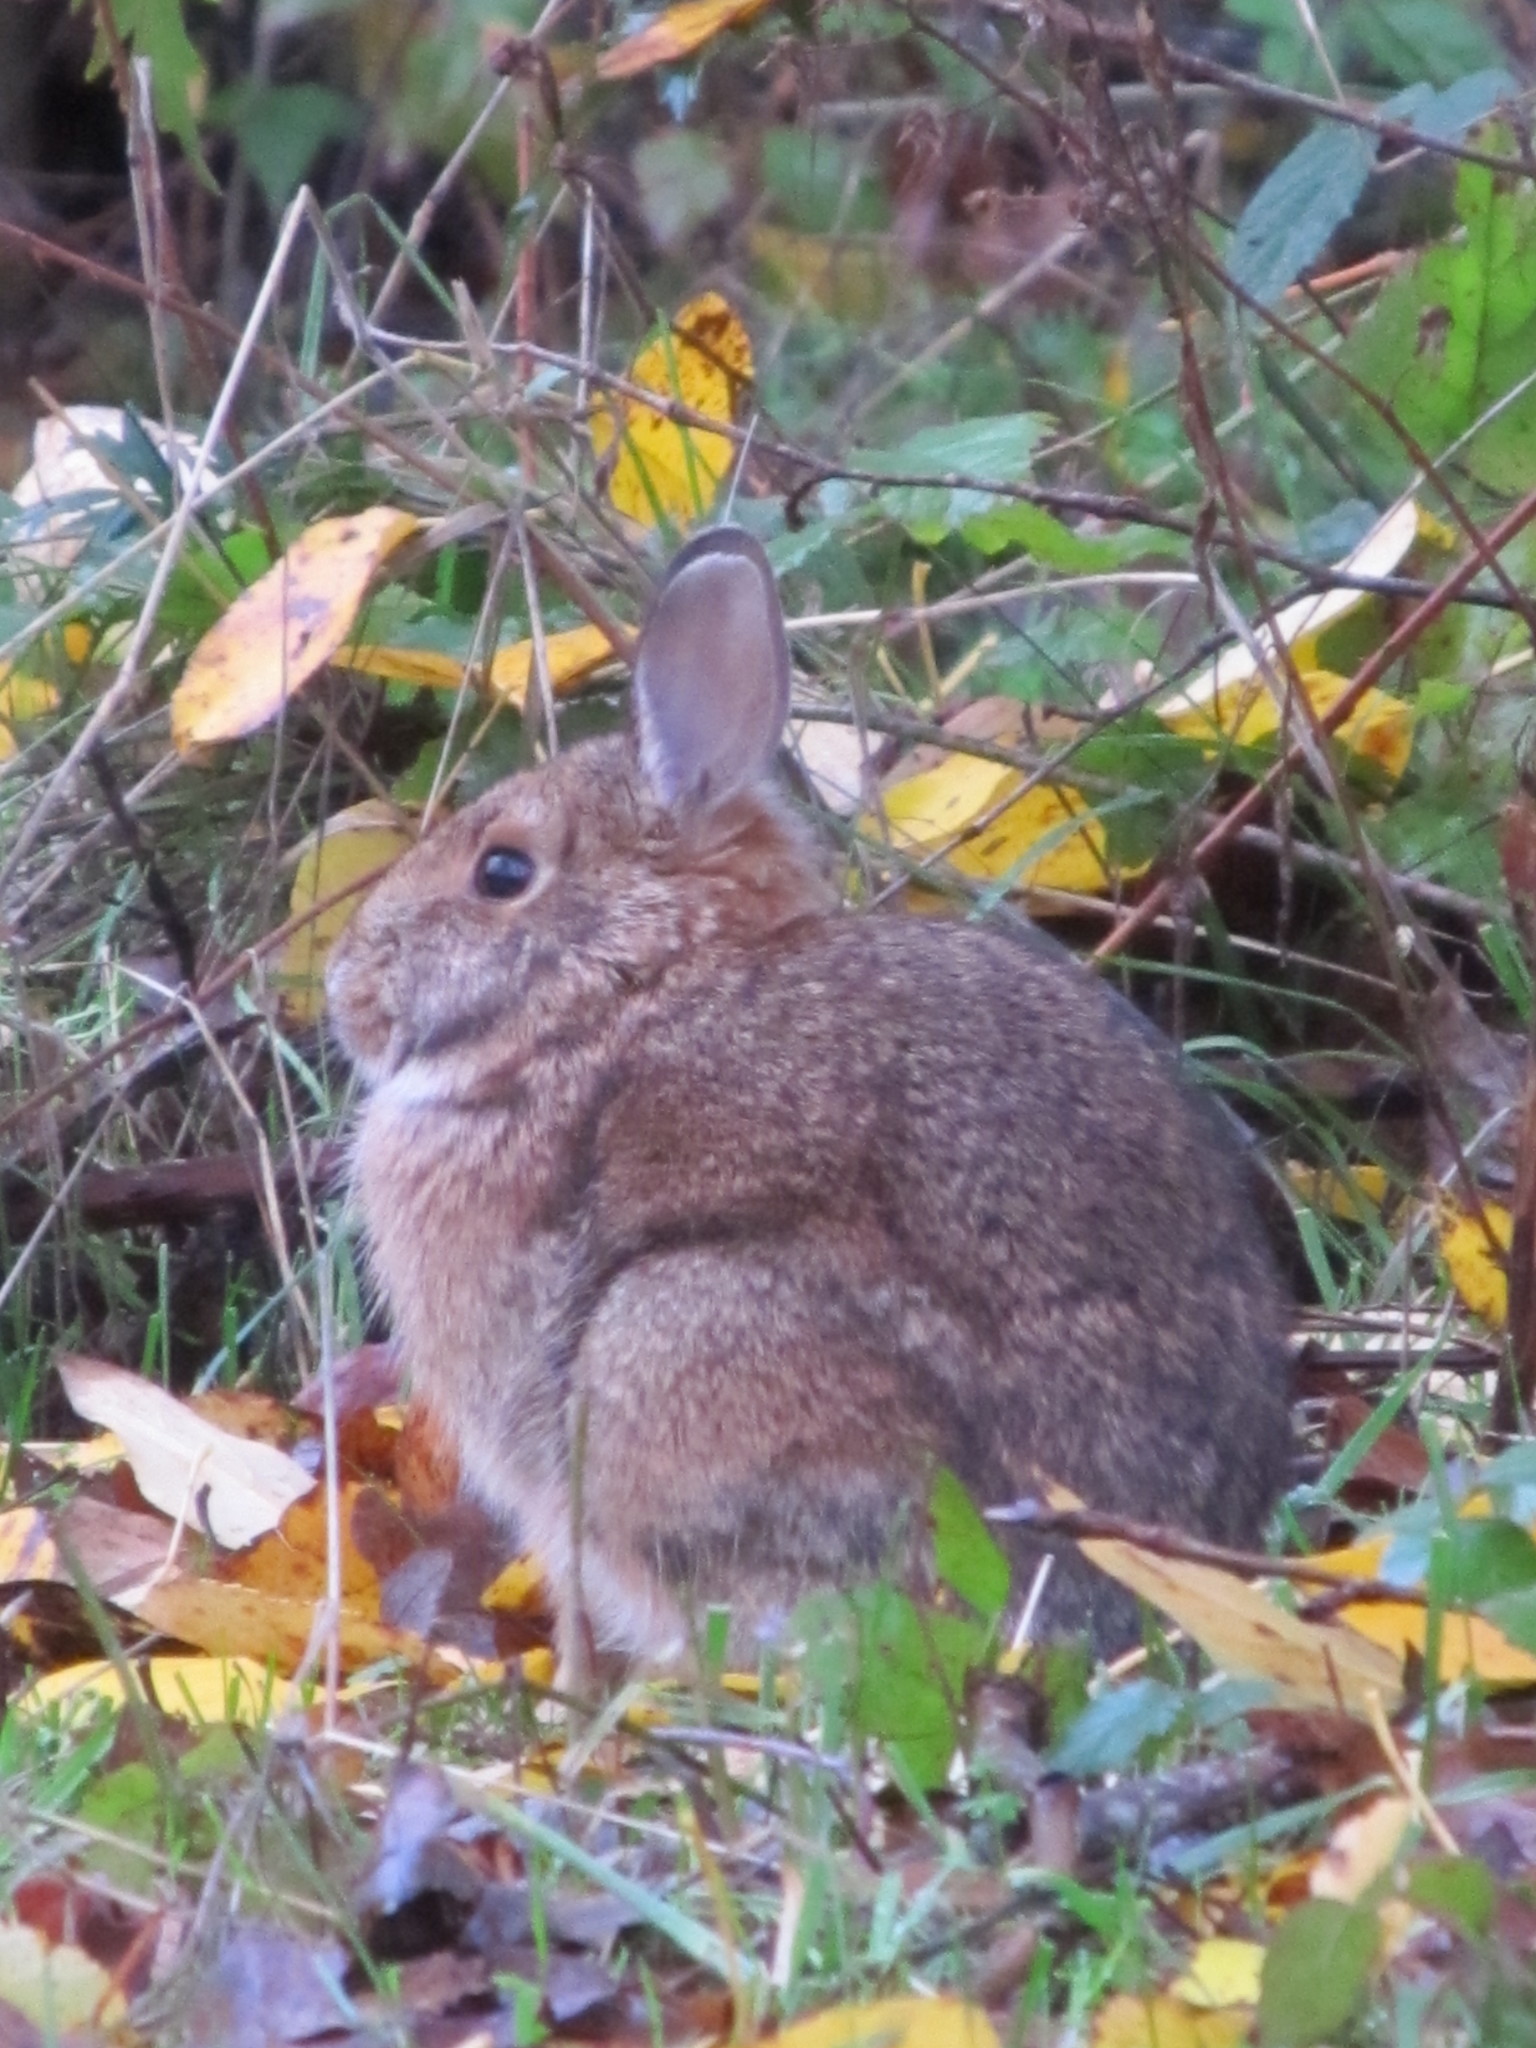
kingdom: Animalia
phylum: Chordata
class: Mammalia
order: Lagomorpha
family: Leporidae
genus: Sylvilagus
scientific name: Sylvilagus
